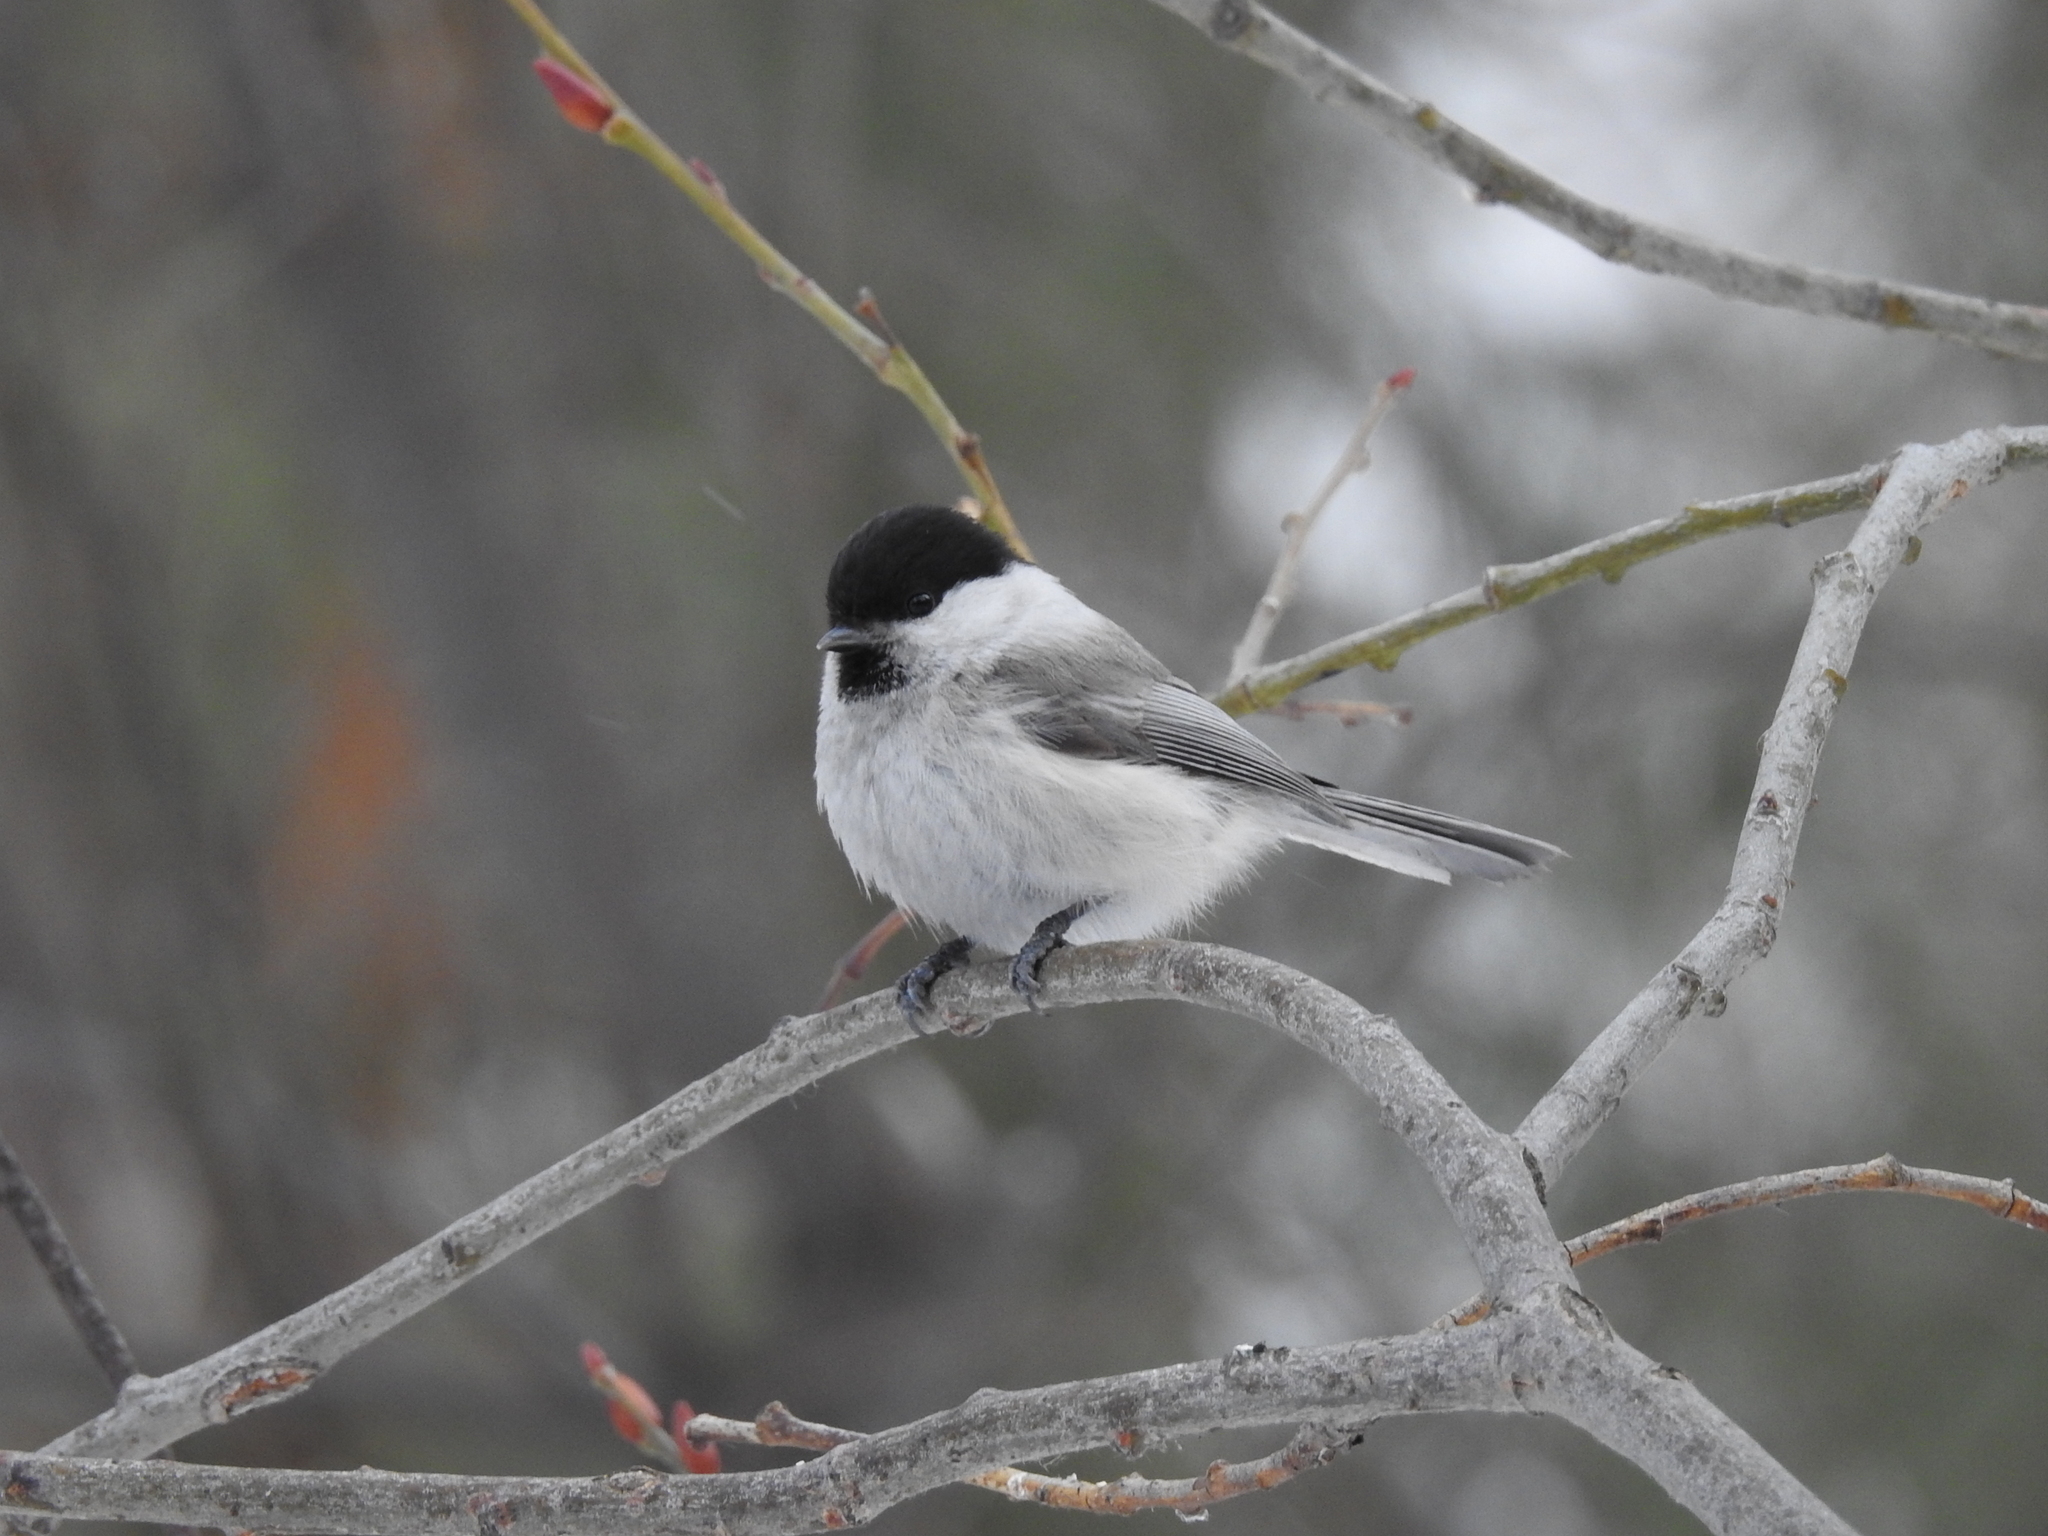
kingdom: Animalia
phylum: Chordata
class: Aves
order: Passeriformes
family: Paridae
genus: Poecile
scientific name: Poecile montanus
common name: Willow tit
